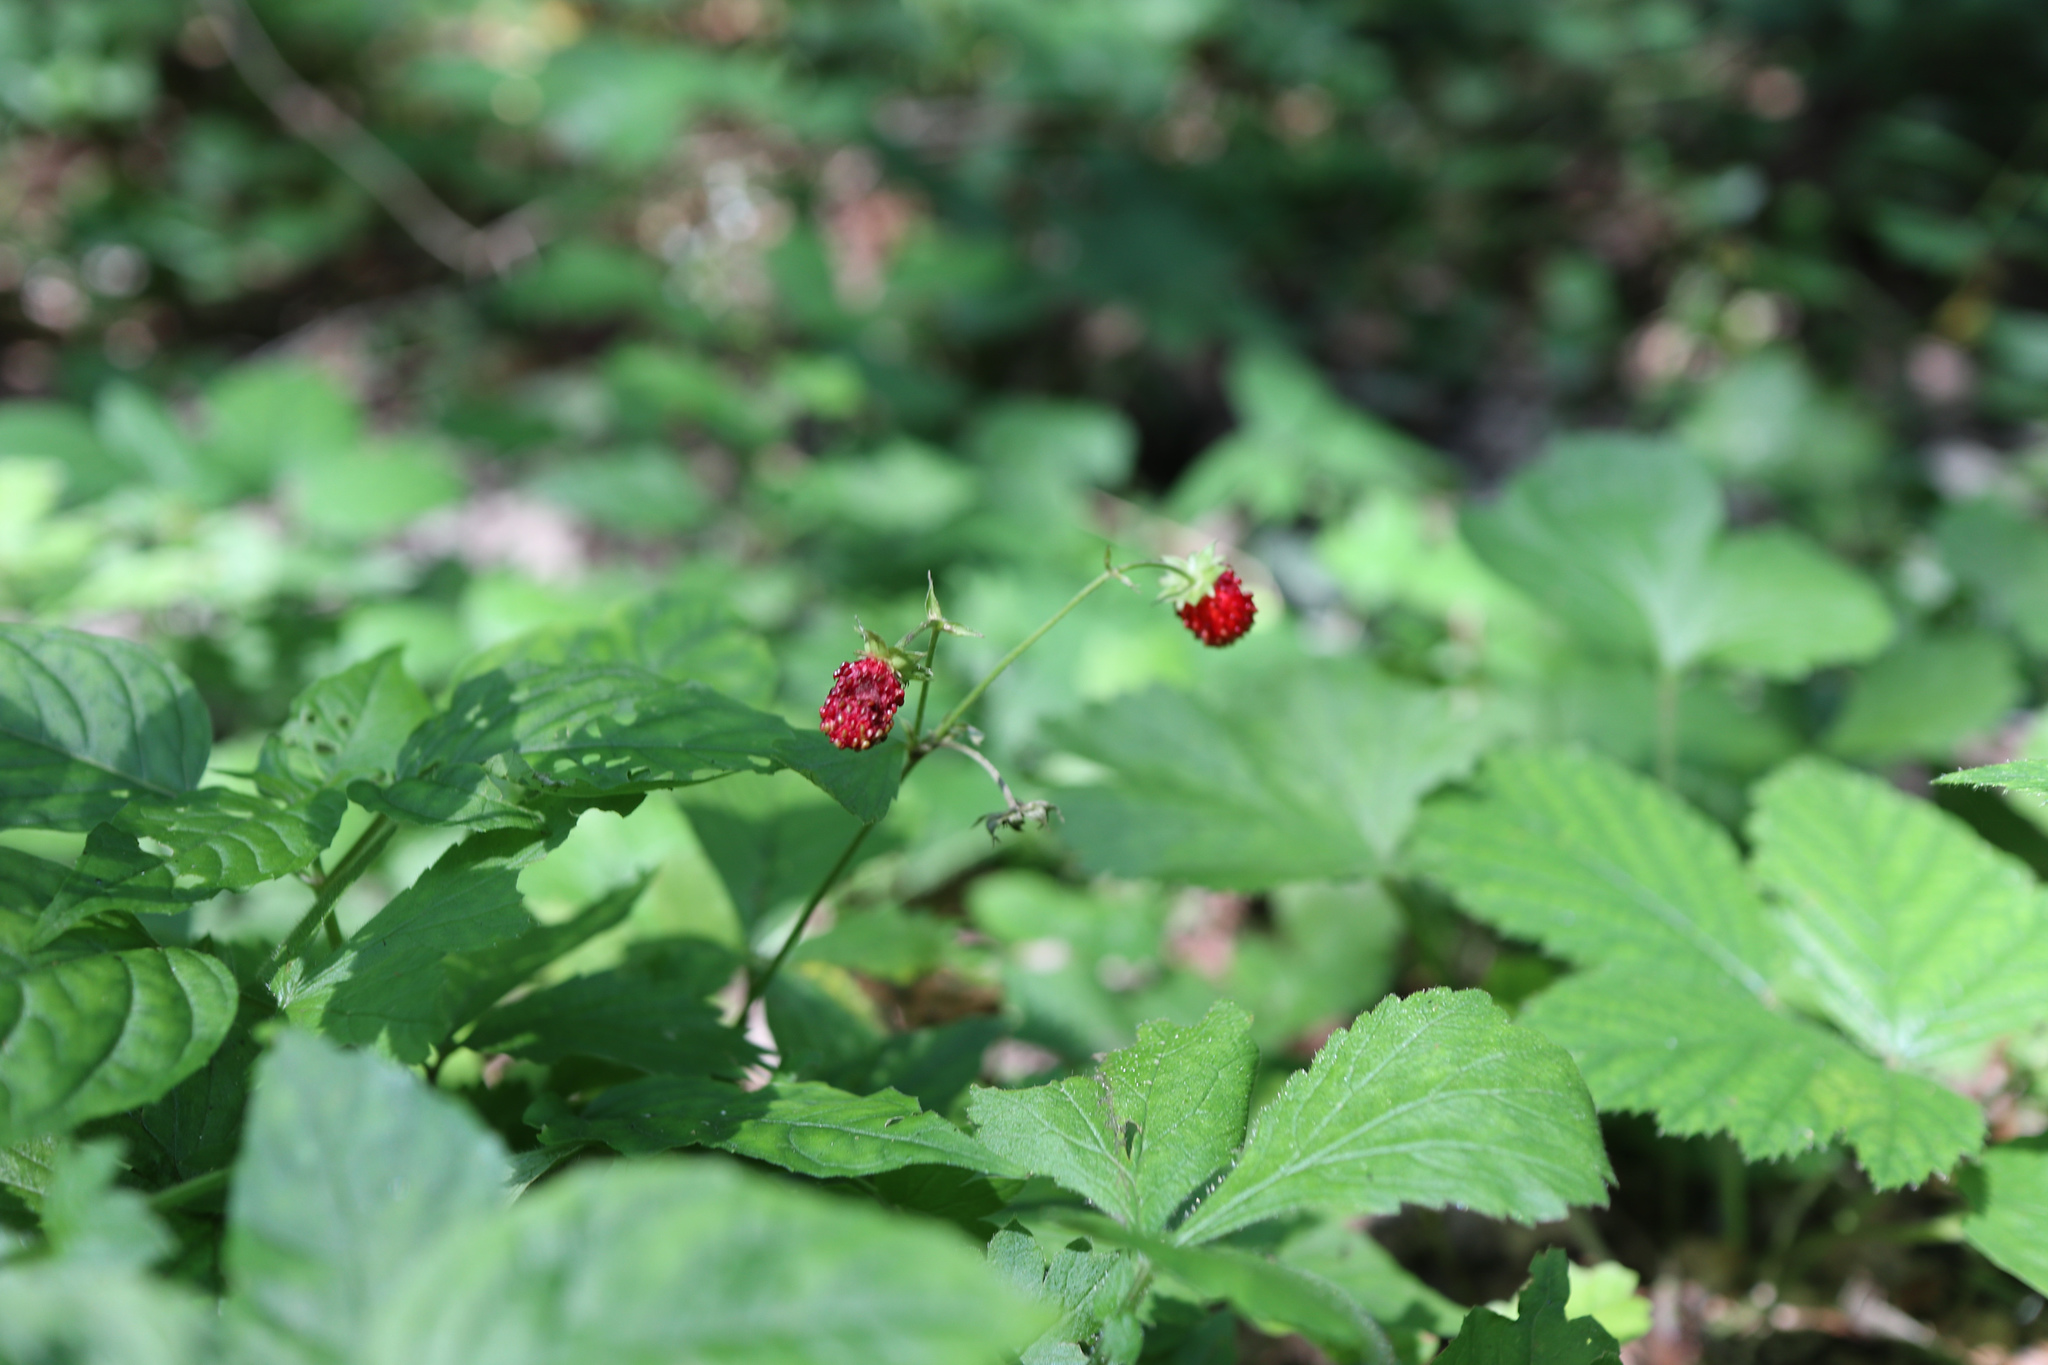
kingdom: Plantae
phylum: Tracheophyta
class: Magnoliopsida
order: Rosales
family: Rosaceae
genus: Fragaria
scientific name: Fragaria vesca
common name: Wild strawberry
